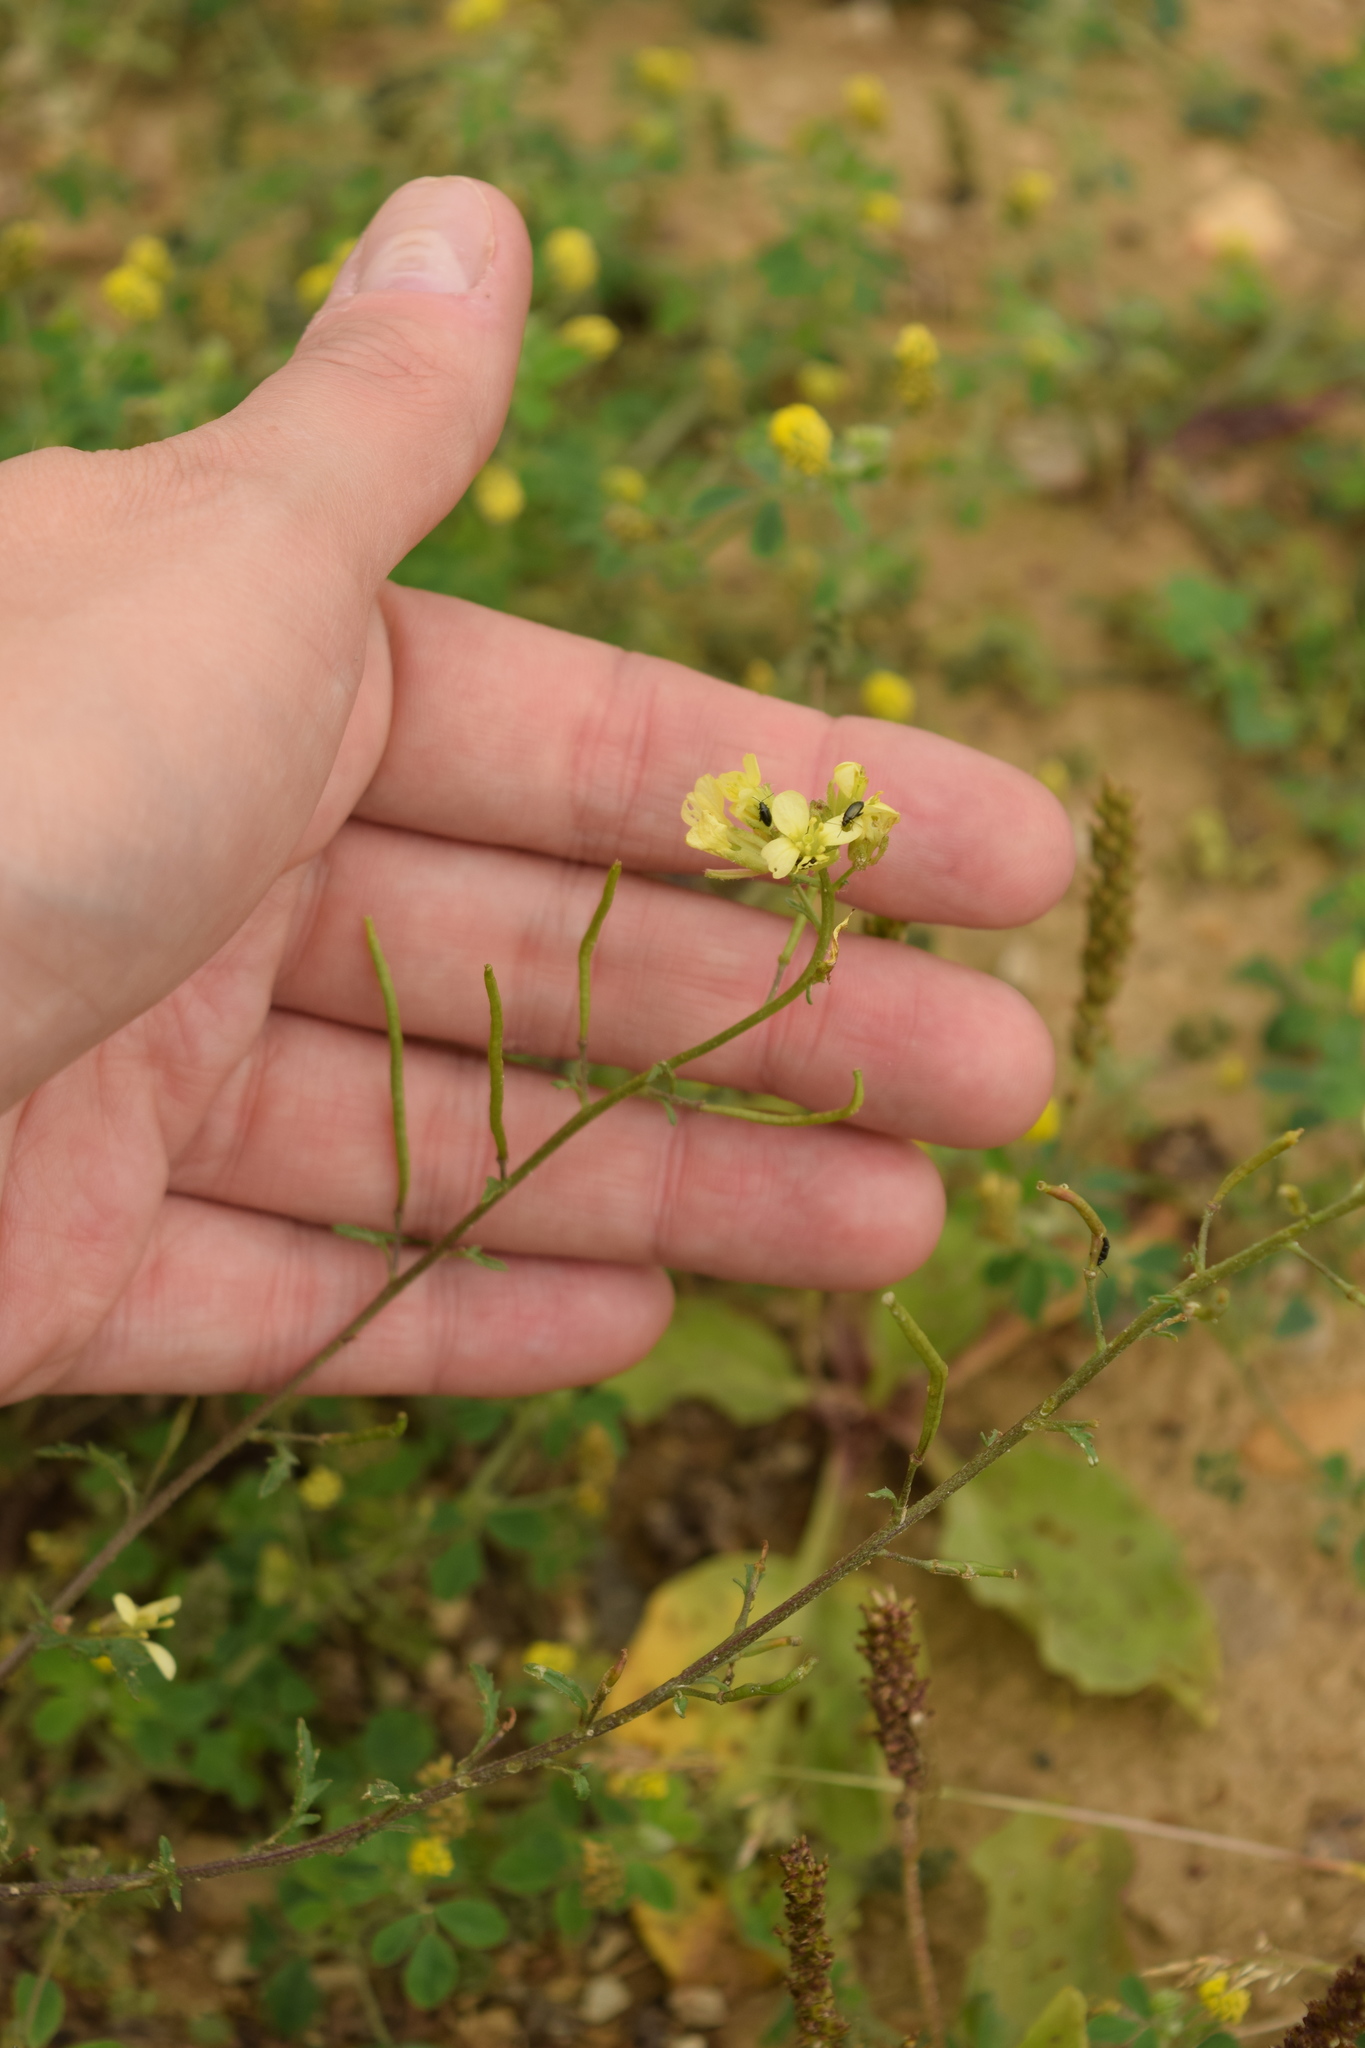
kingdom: Plantae
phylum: Tracheophyta
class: Magnoliopsida
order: Brassicales
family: Brassicaceae
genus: Erucastrum
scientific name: Erucastrum gallicum
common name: Hairy rocket
